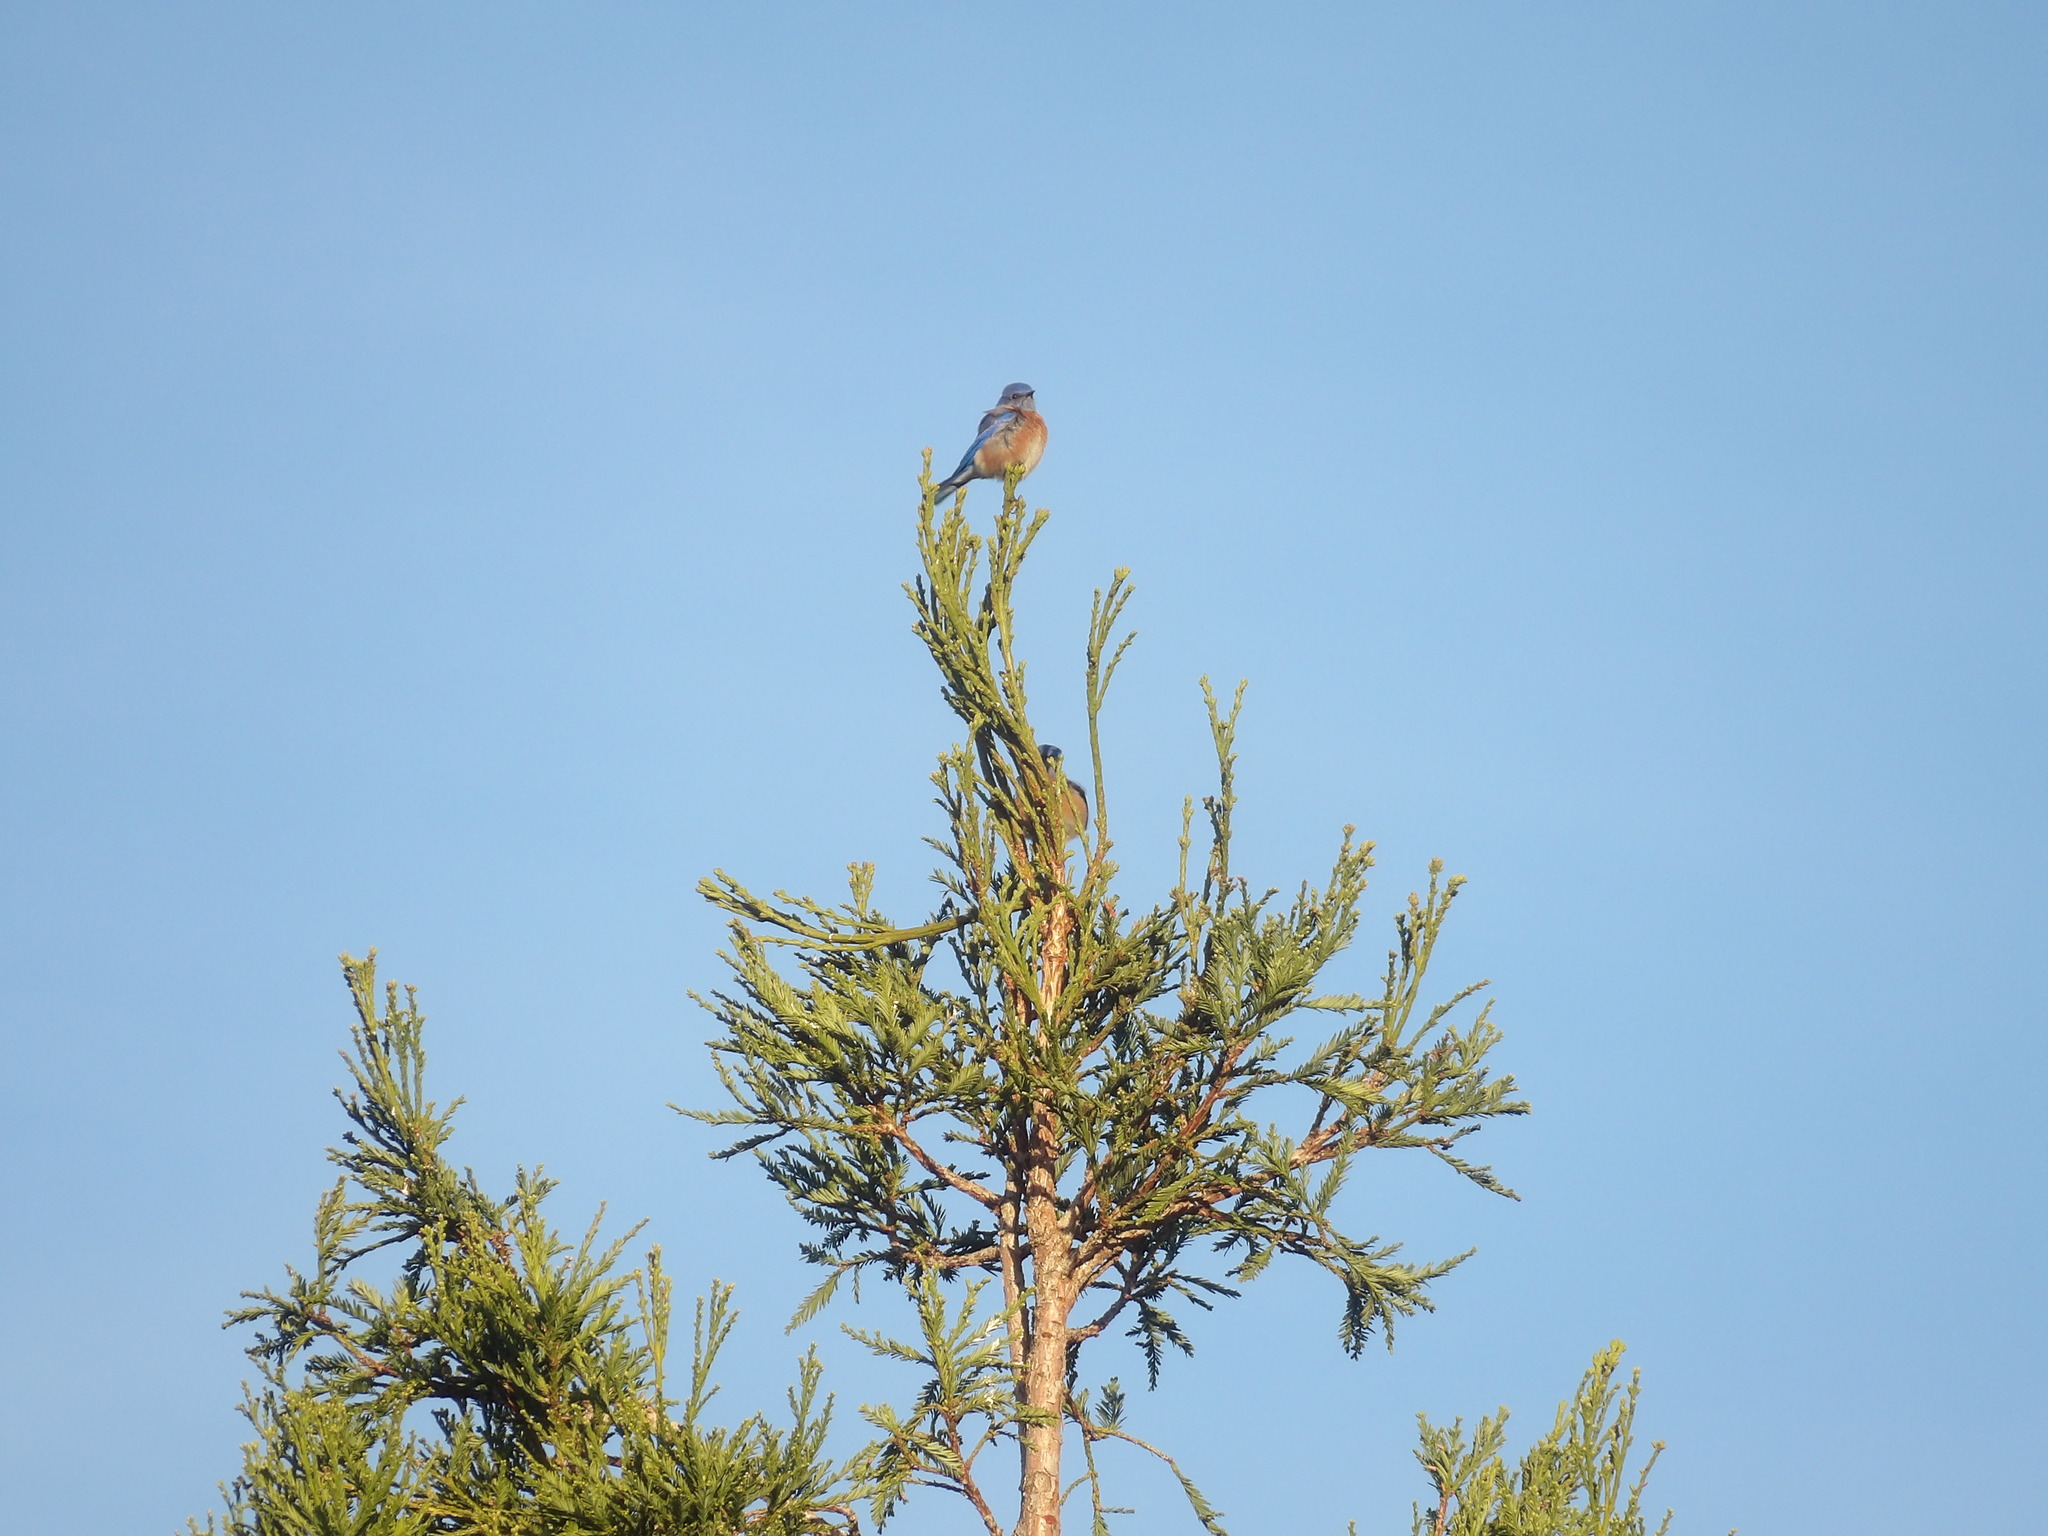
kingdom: Animalia
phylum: Chordata
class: Aves
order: Passeriformes
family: Turdidae
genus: Sialia
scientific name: Sialia mexicana
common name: Western bluebird
